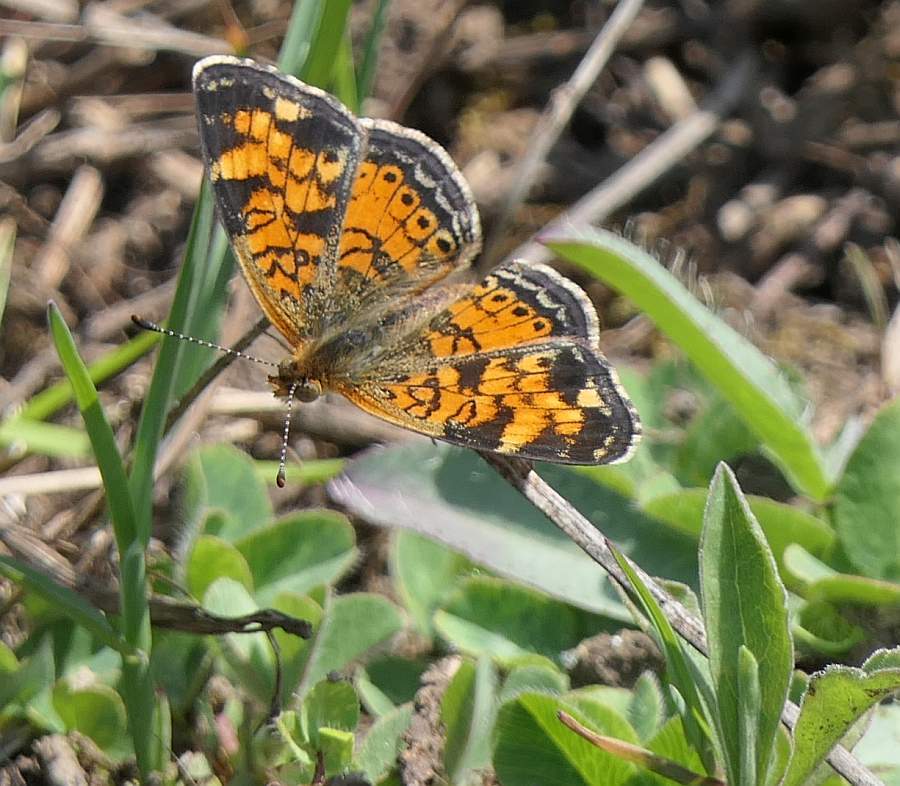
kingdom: Animalia
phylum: Arthropoda
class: Insecta
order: Lepidoptera
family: Nymphalidae
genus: Phyciodes
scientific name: Phyciodes tharos
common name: Pearl crescent
